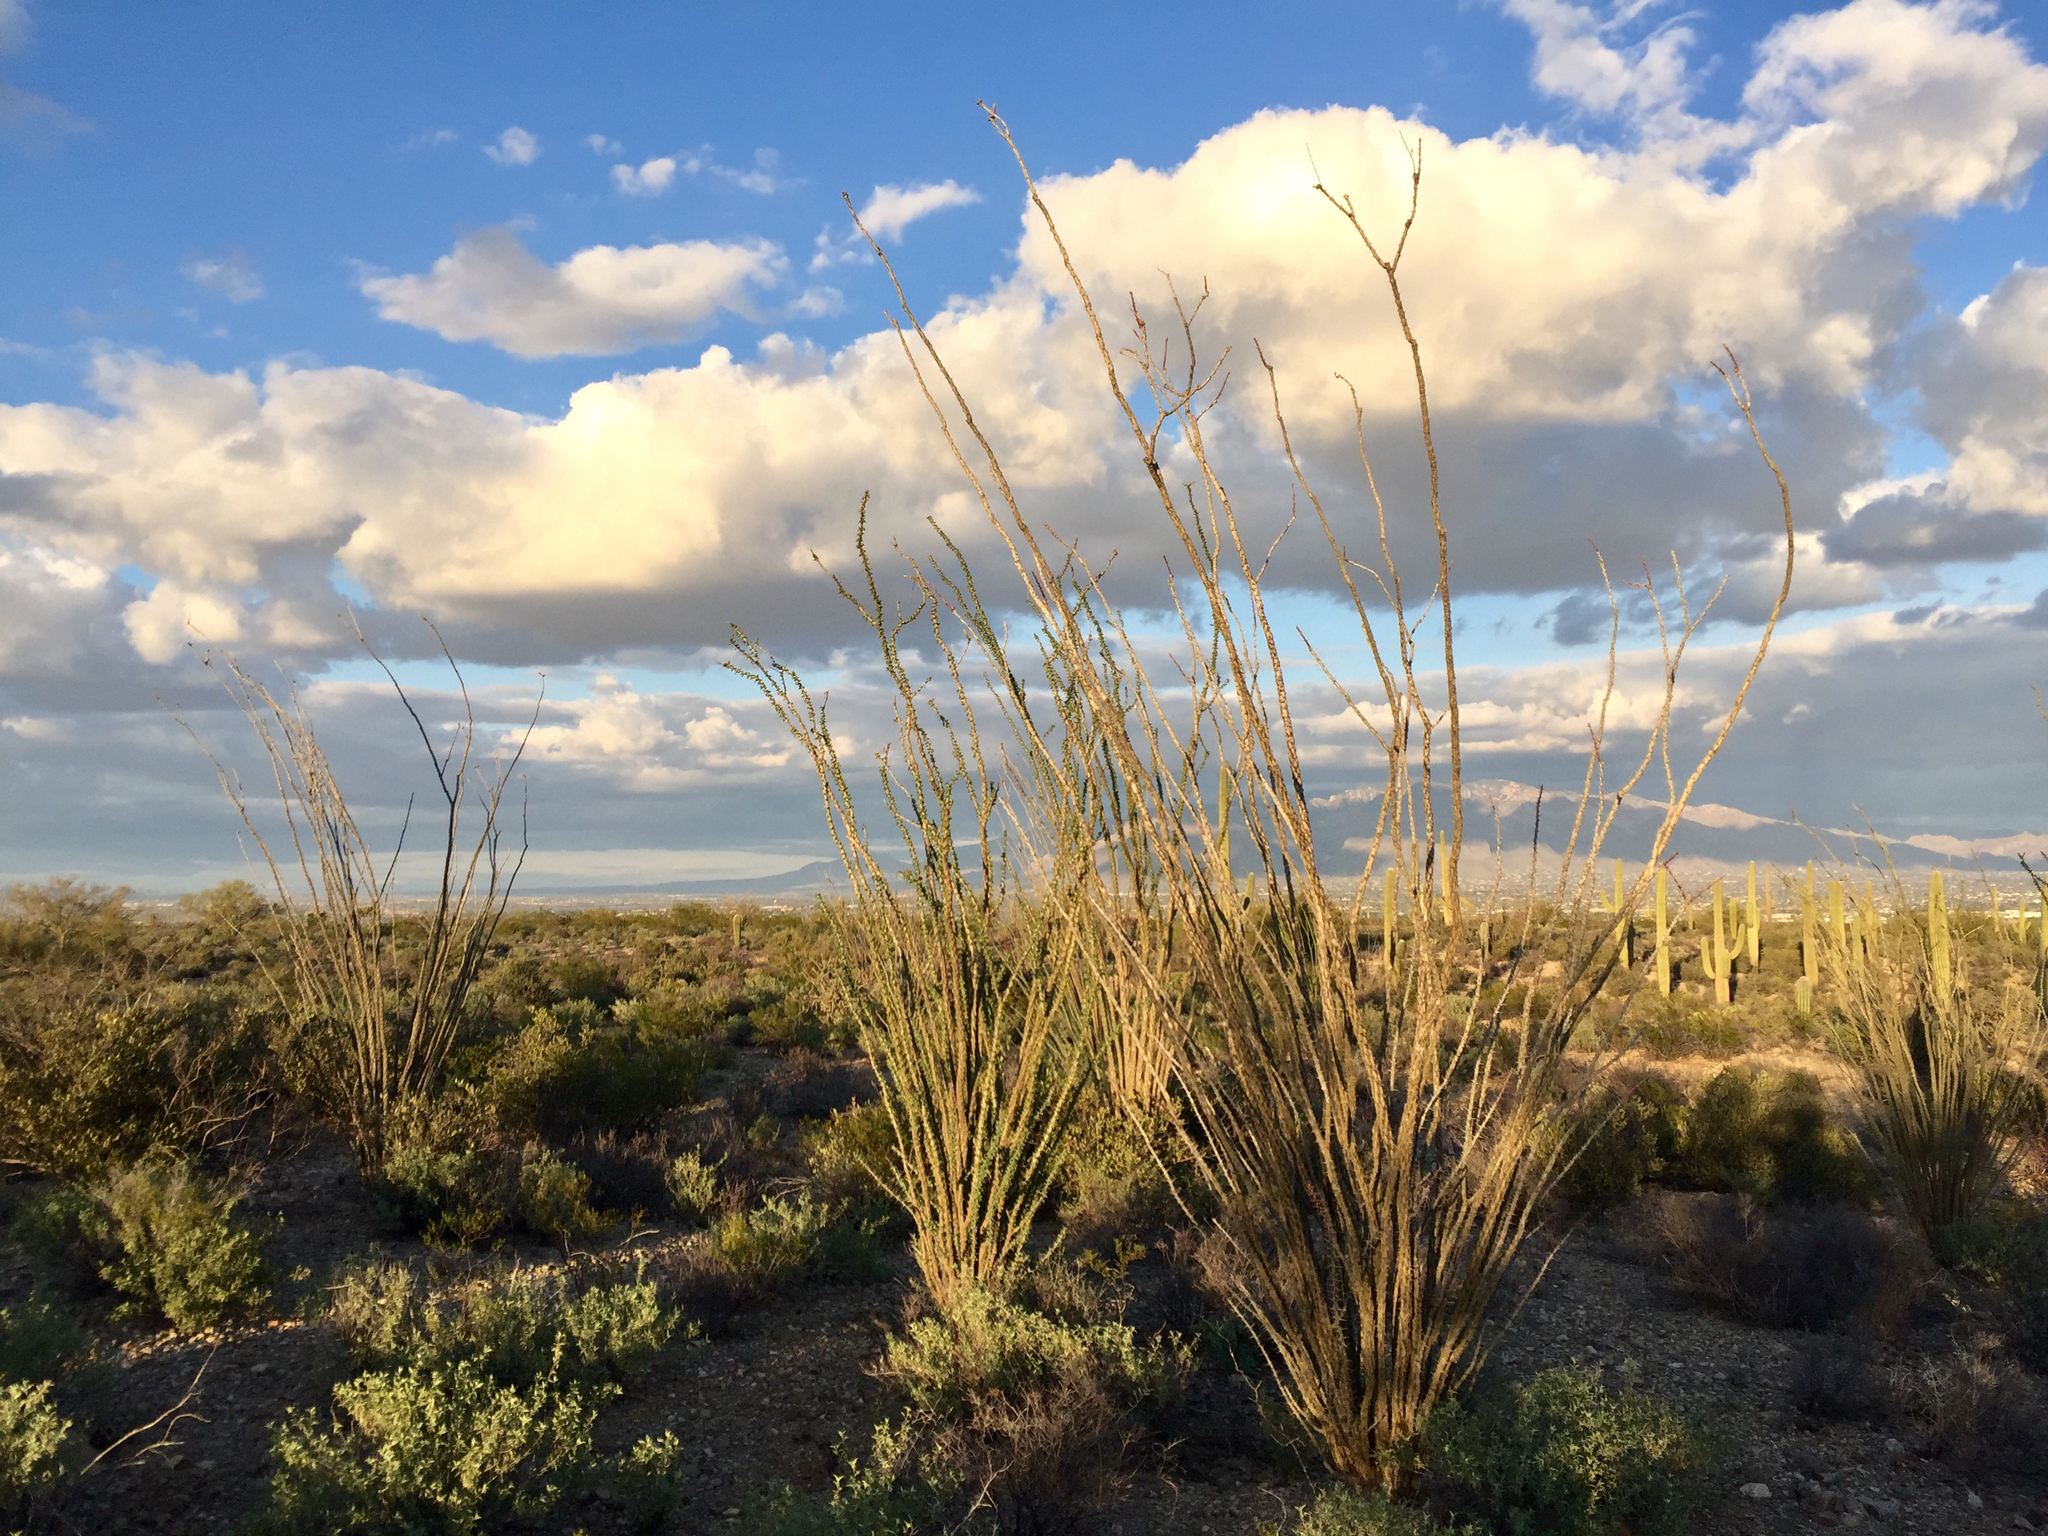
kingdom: Plantae
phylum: Tracheophyta
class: Magnoliopsida
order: Ericales
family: Fouquieriaceae
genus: Fouquieria
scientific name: Fouquieria splendens
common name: Vine-cactus
